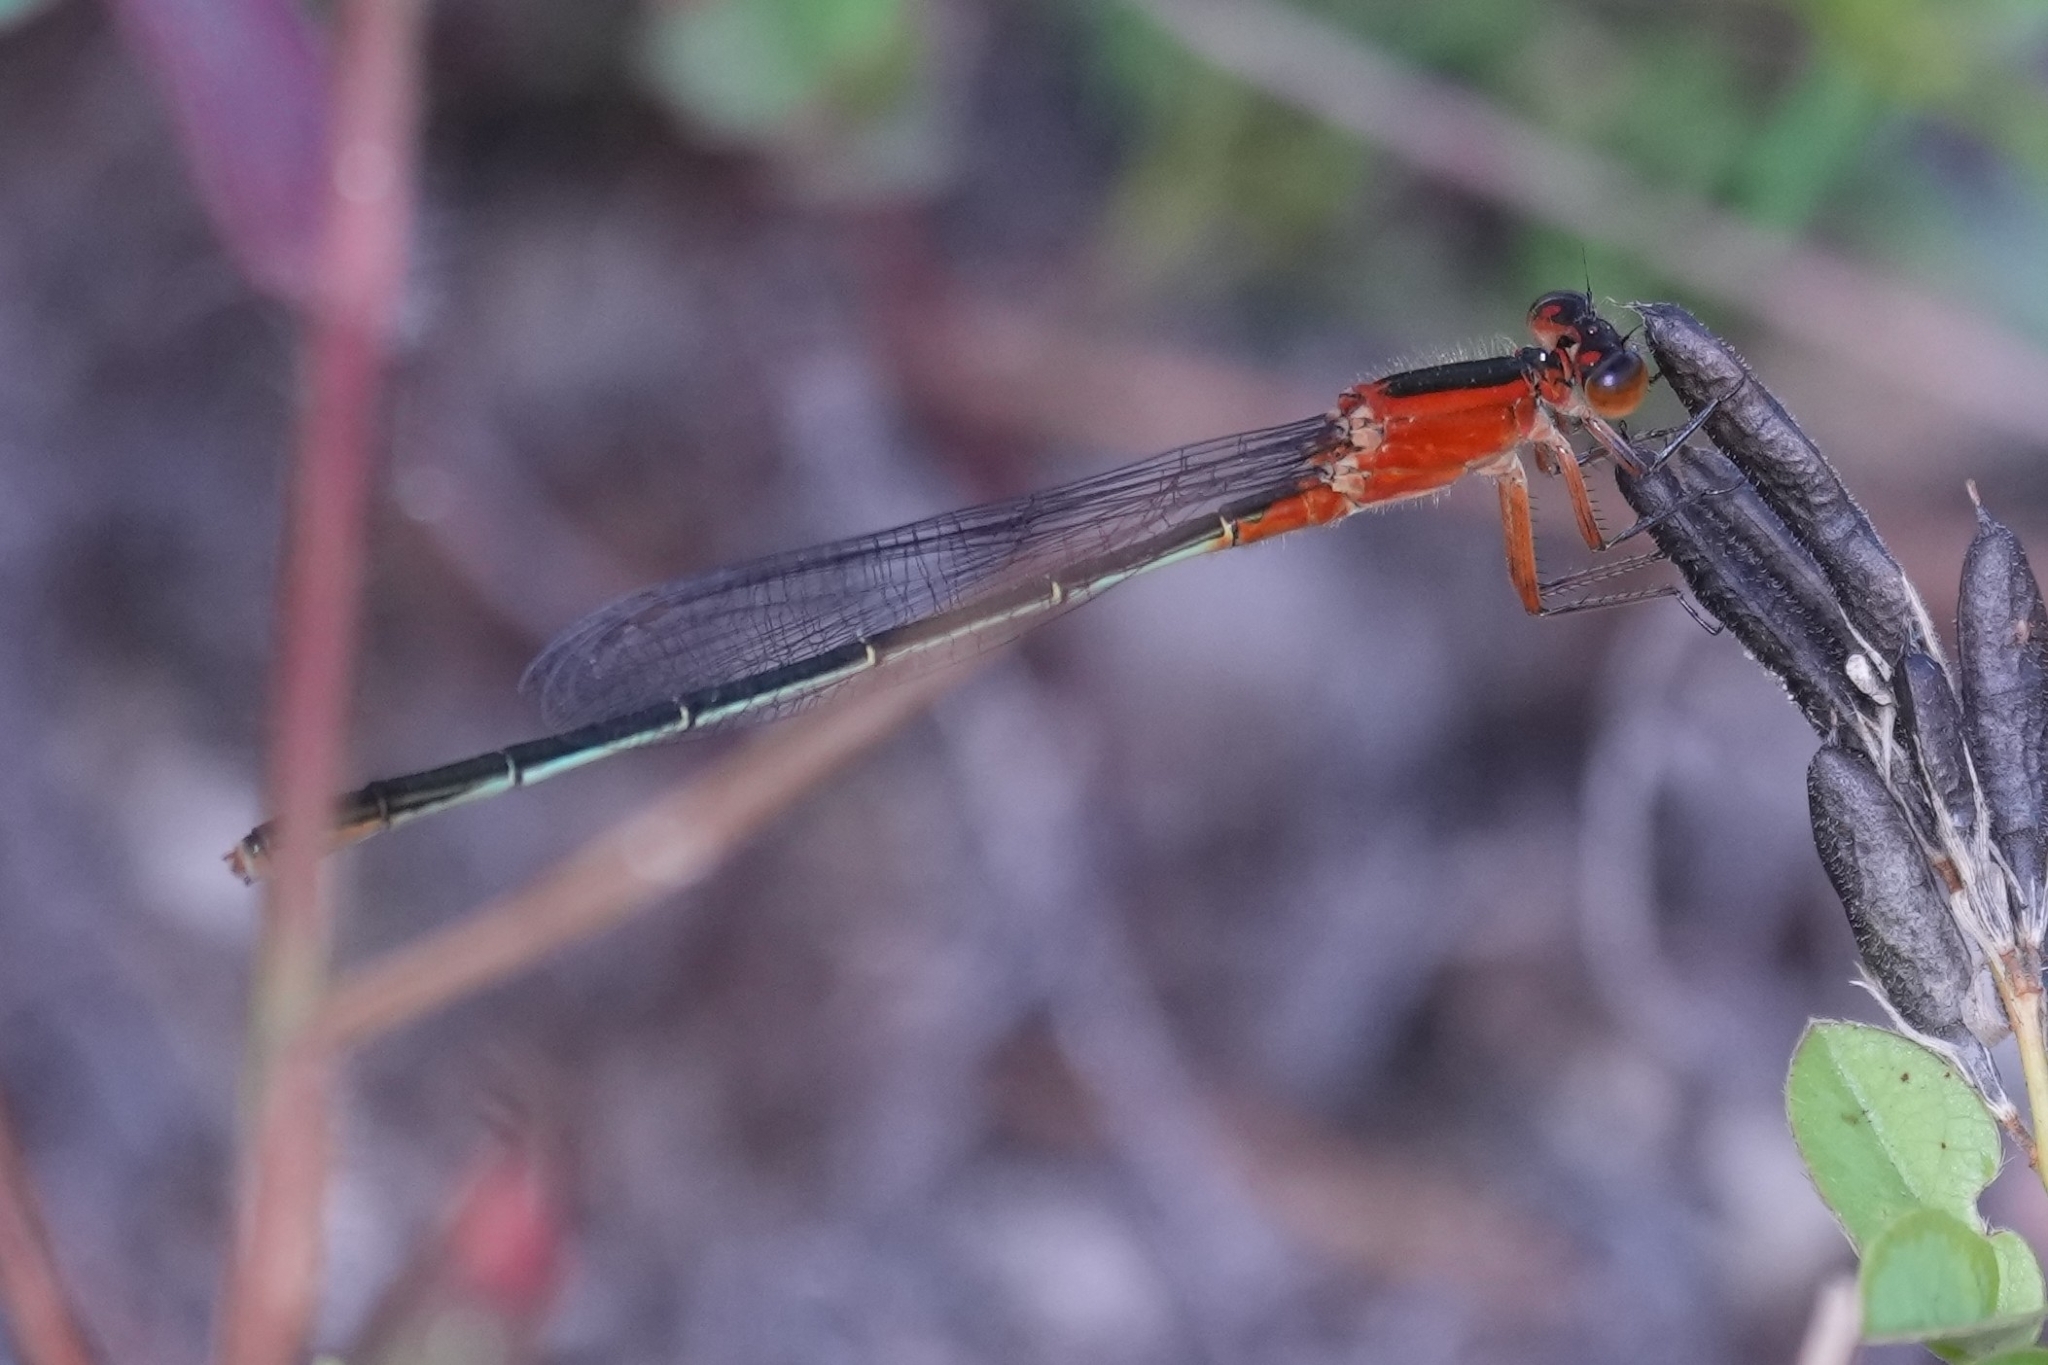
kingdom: Animalia
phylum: Arthropoda
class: Insecta
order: Odonata
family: Coenagrionidae
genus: Ischnura
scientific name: Ischnura ramburii
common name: Rambur's forktail
